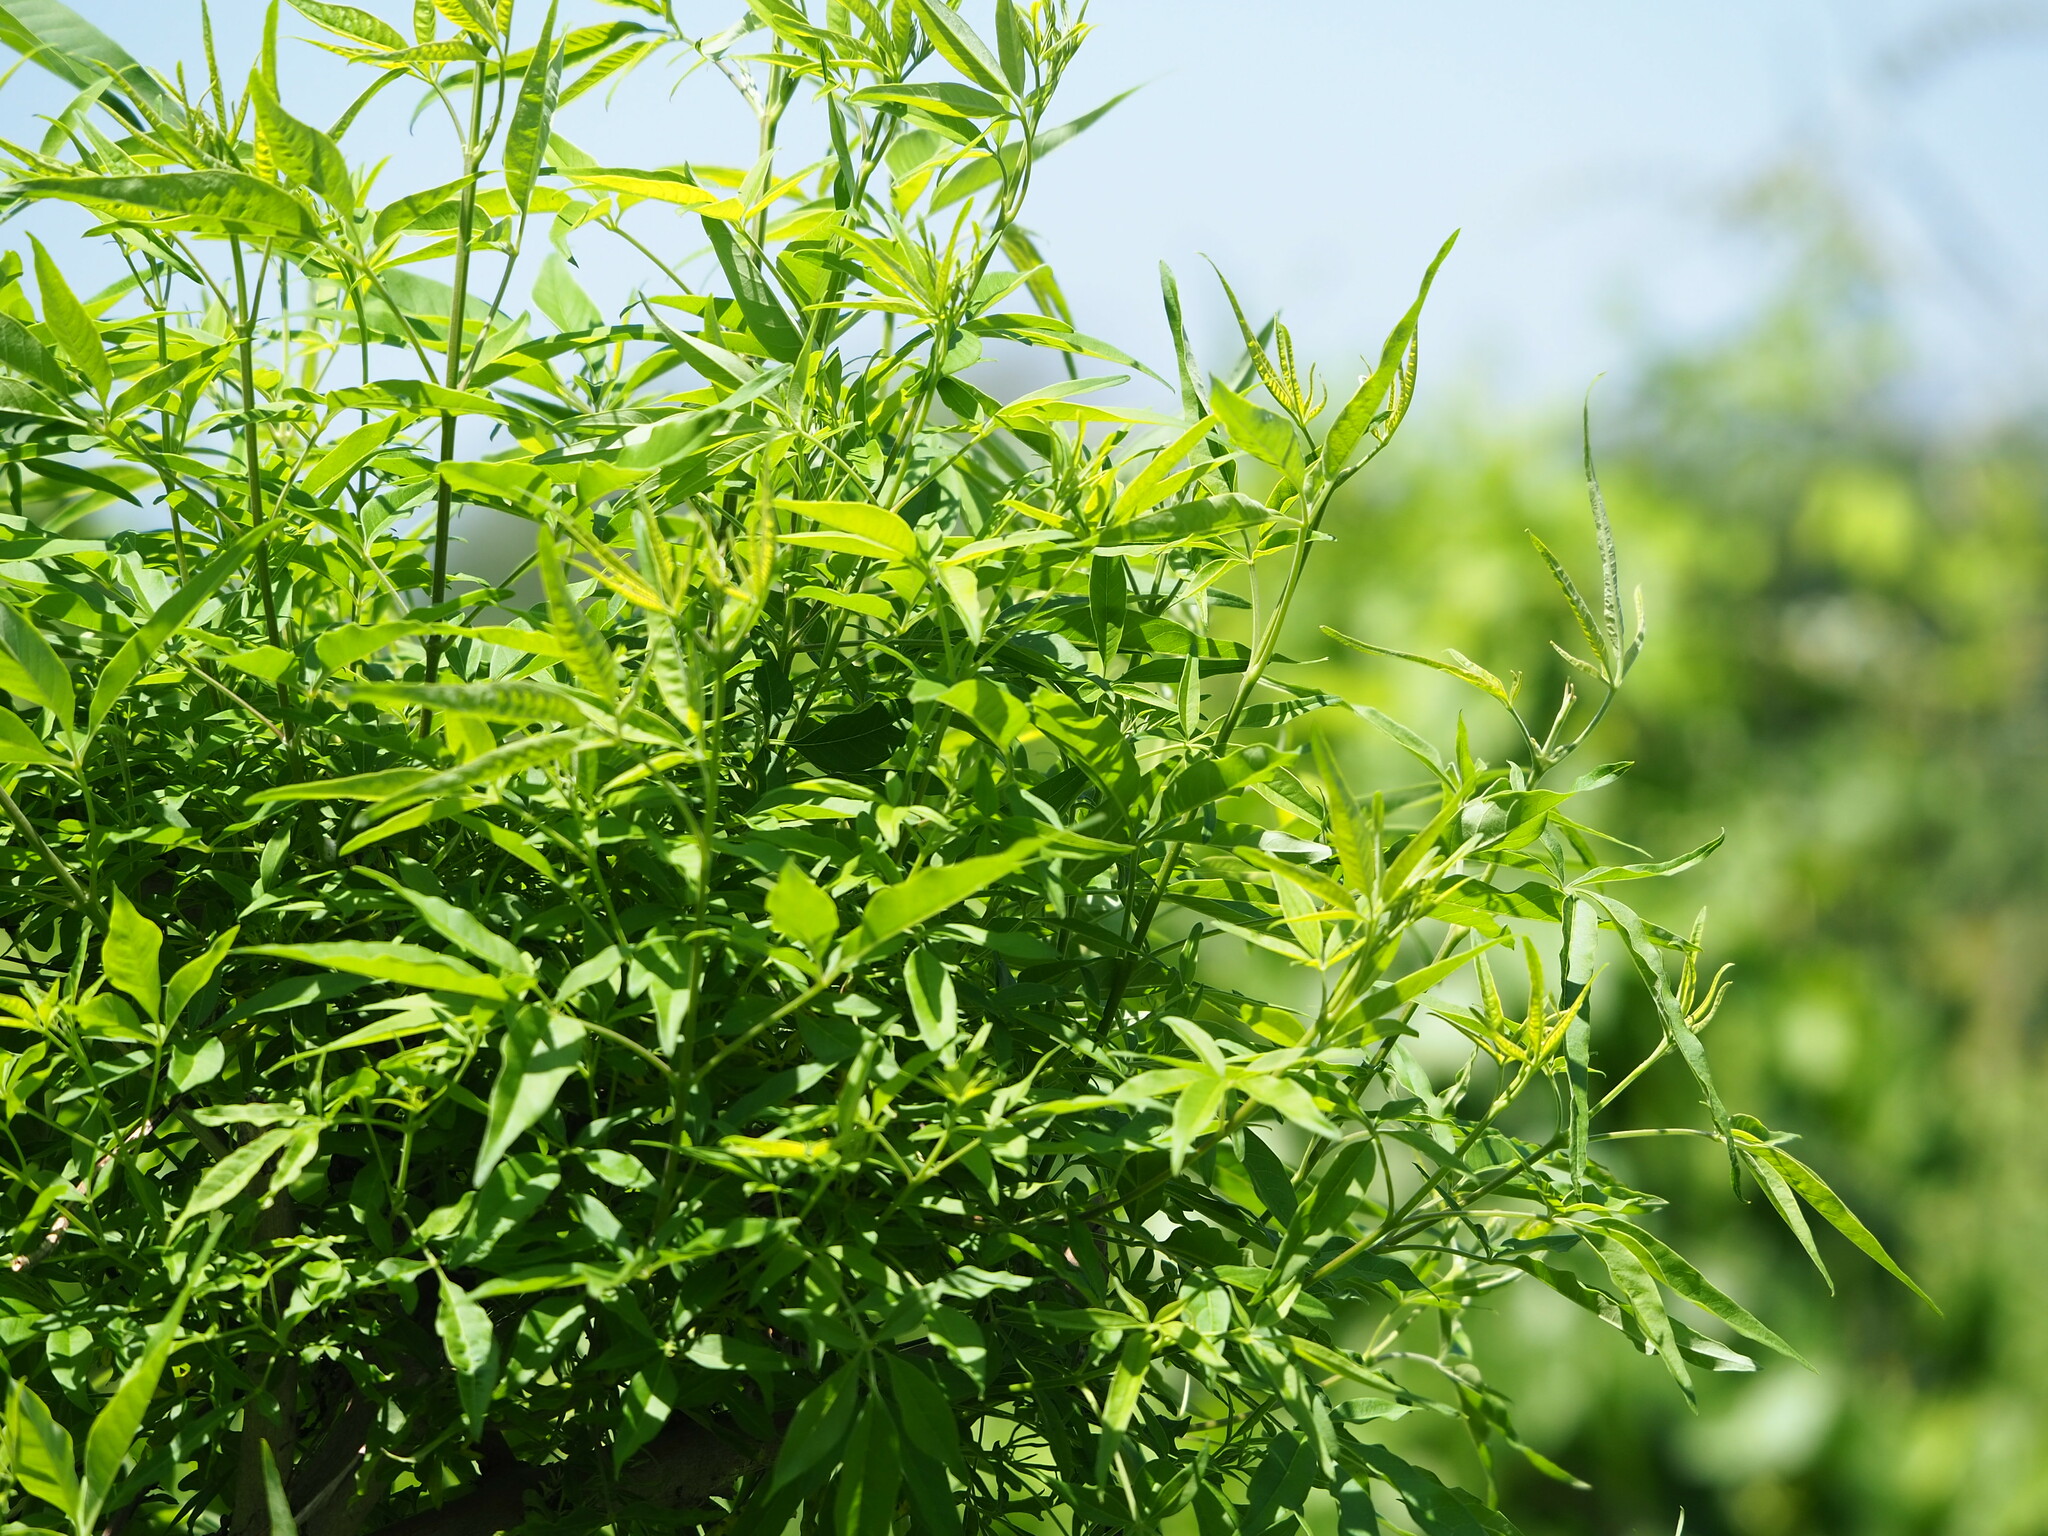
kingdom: Plantae
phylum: Tracheophyta
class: Magnoliopsida
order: Lamiales
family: Lamiaceae
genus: Vitex
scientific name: Vitex negundo
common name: Chinese chastetree
